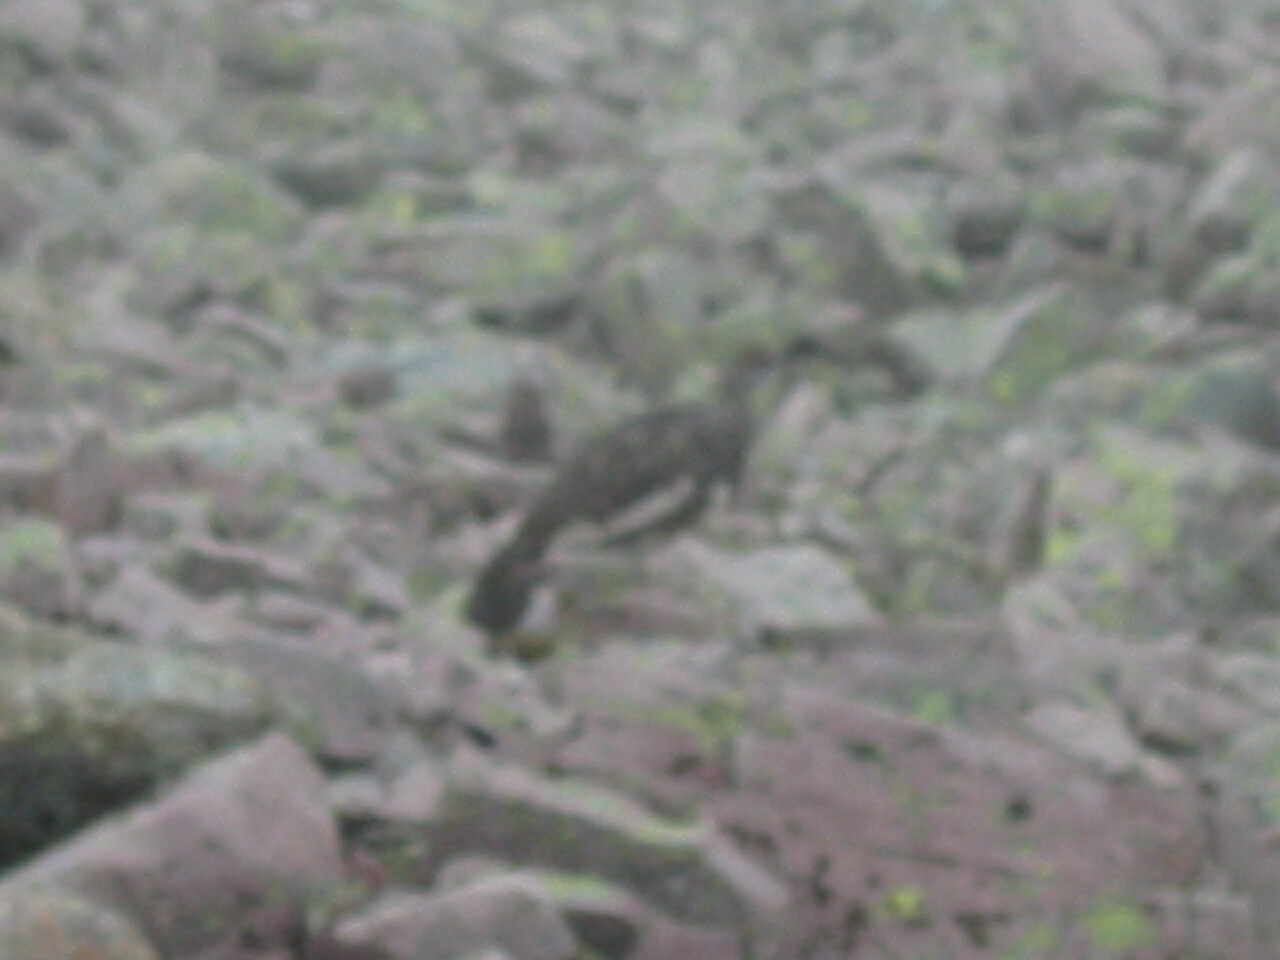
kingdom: Animalia
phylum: Chordata
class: Aves
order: Galliformes
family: Phasianidae
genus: Lagopus
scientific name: Lagopus muta
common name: Rock ptarmigan
